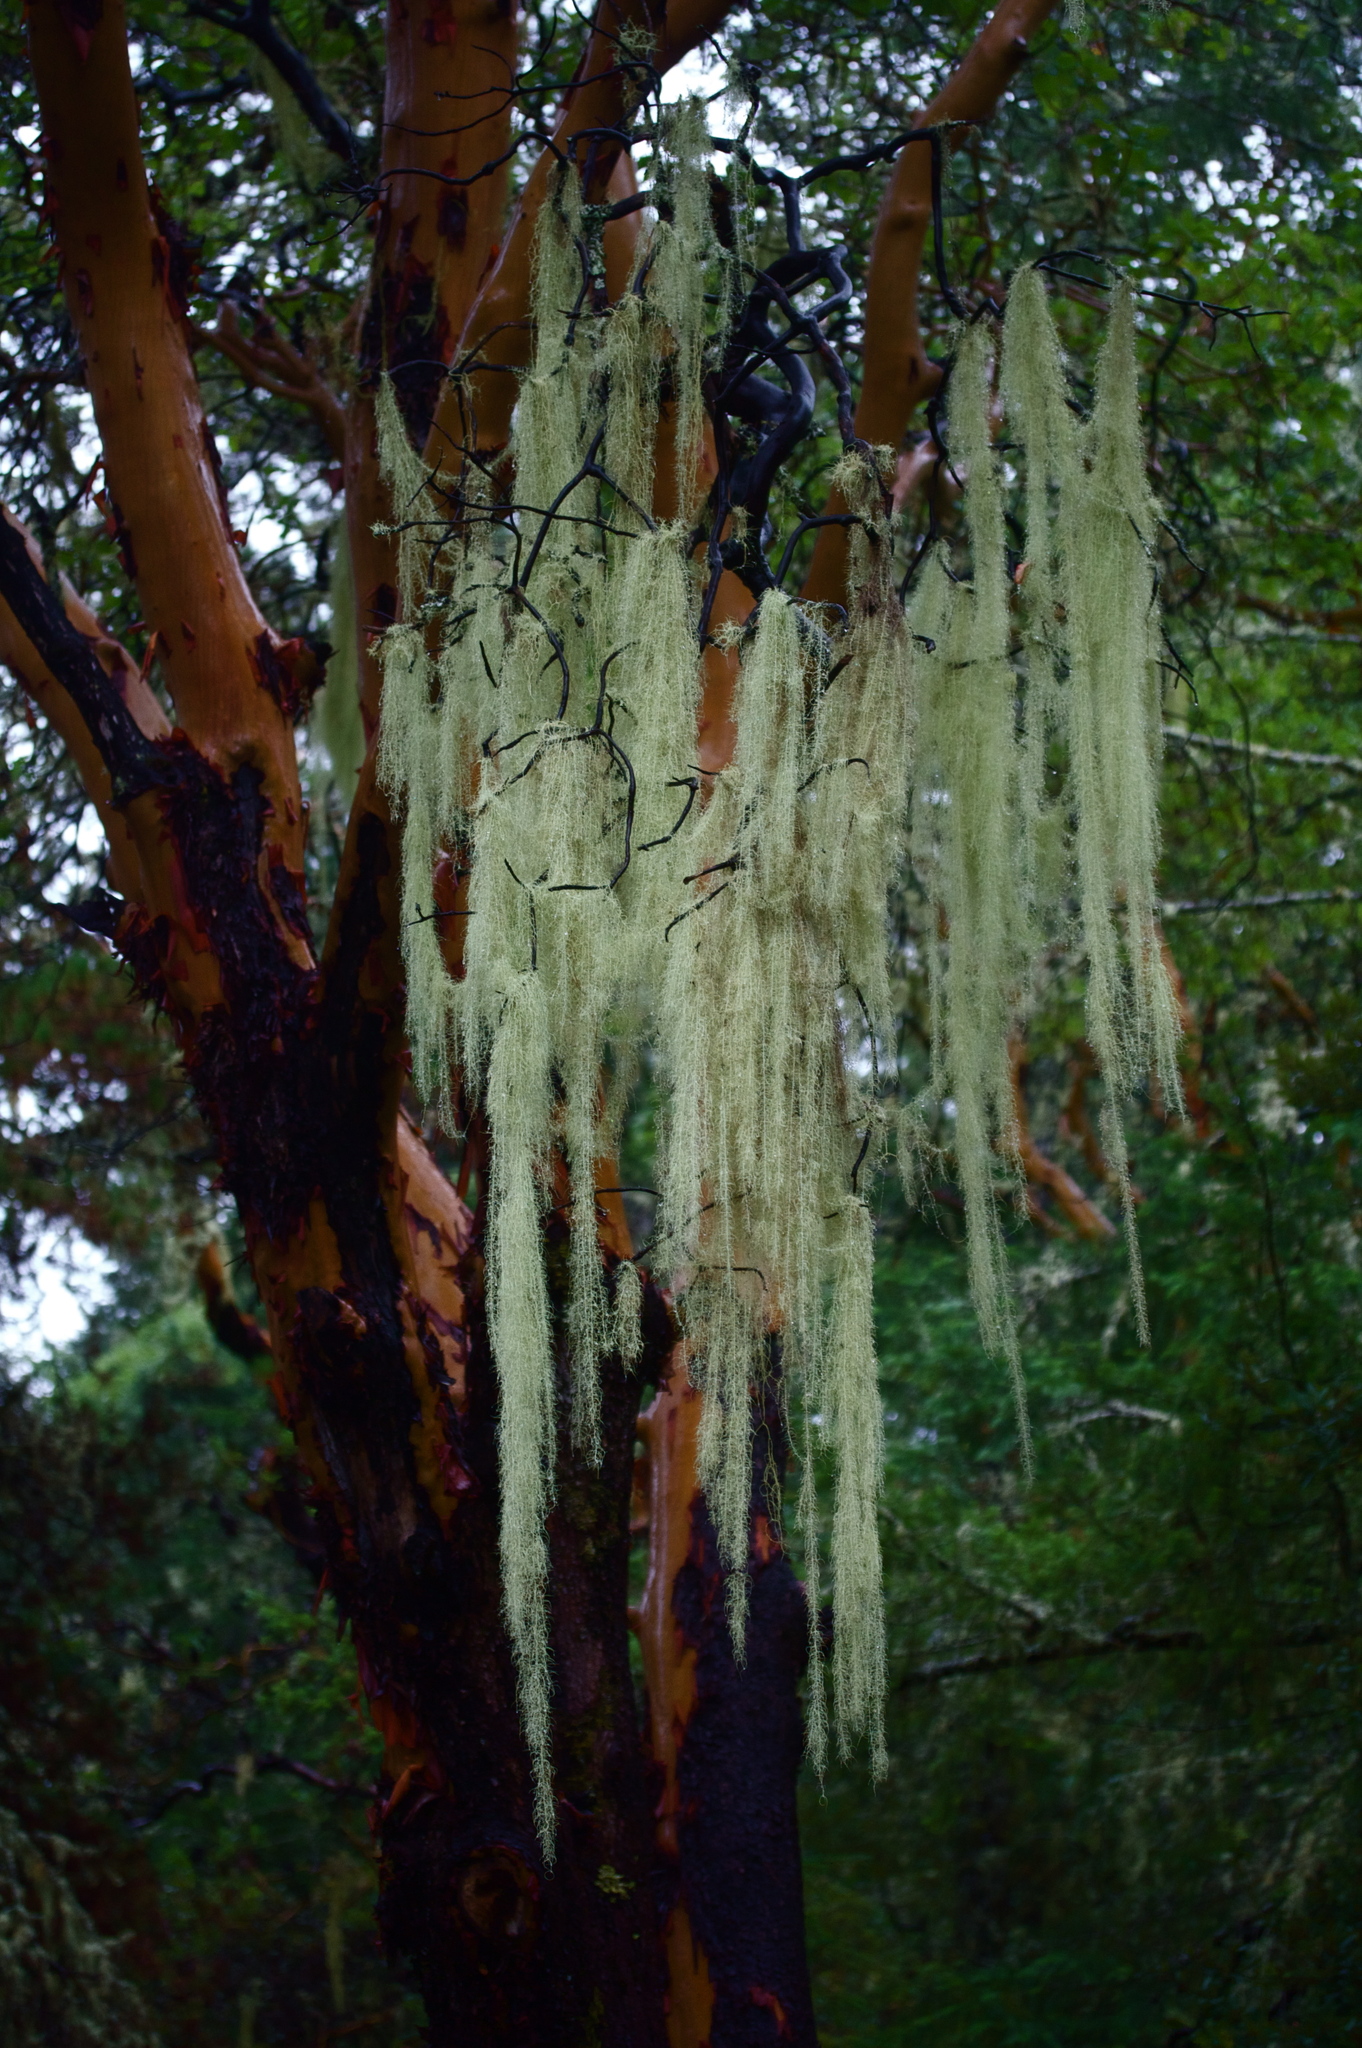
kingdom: Fungi
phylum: Ascomycota
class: Lecanoromycetes
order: Lecanorales
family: Parmeliaceae
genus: Dolichousnea
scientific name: Dolichousnea longissima
